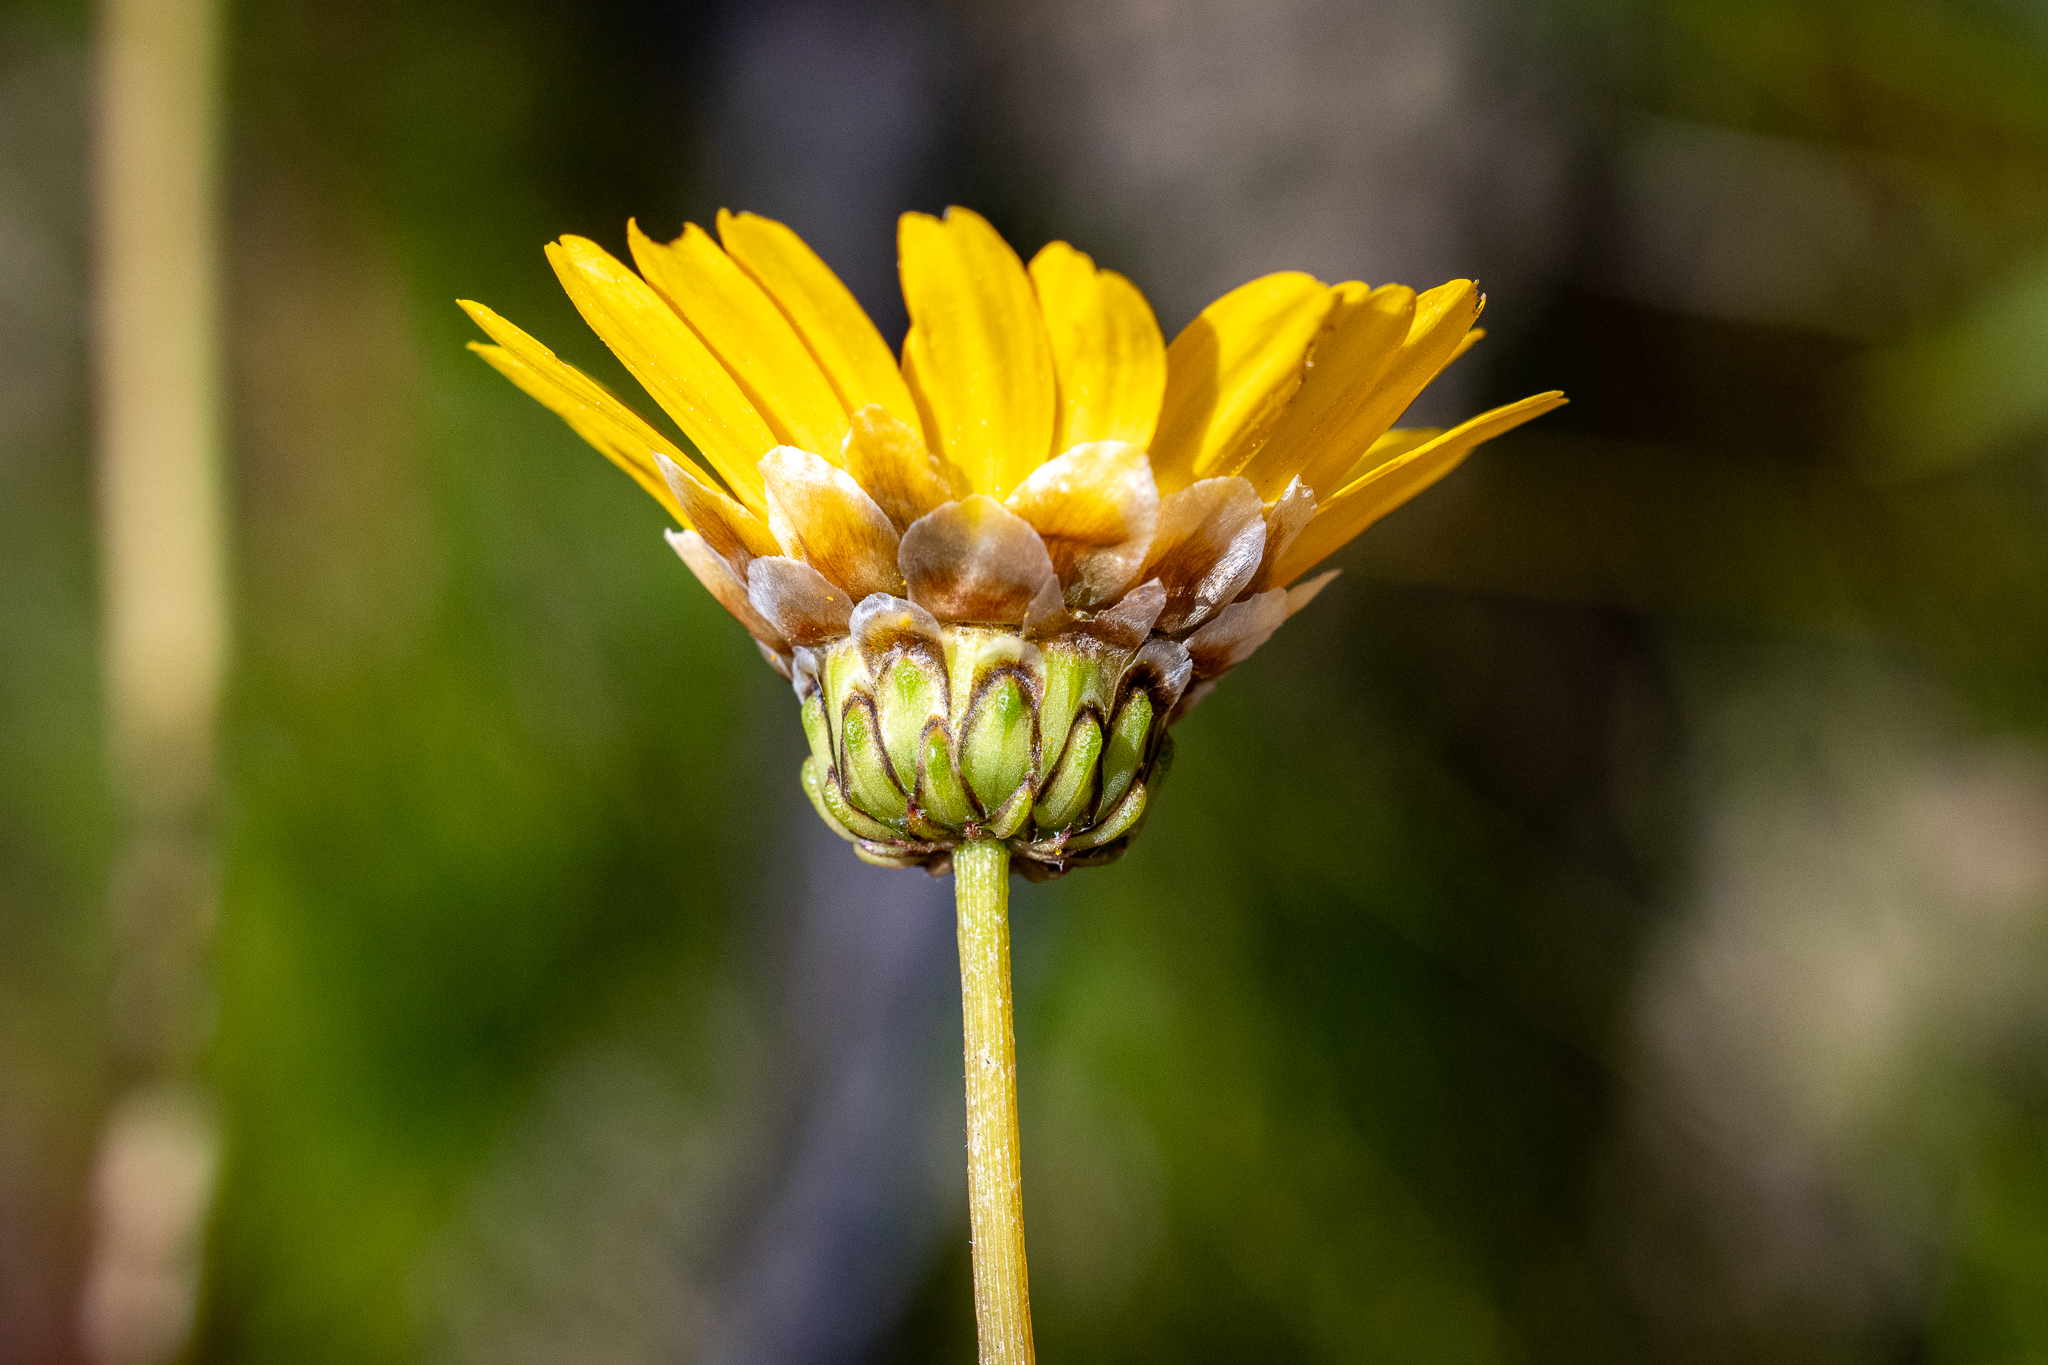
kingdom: Plantae
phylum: Tracheophyta
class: Magnoliopsida
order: Asterales
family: Asteraceae
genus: Ursinia
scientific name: Ursinia paleacea
